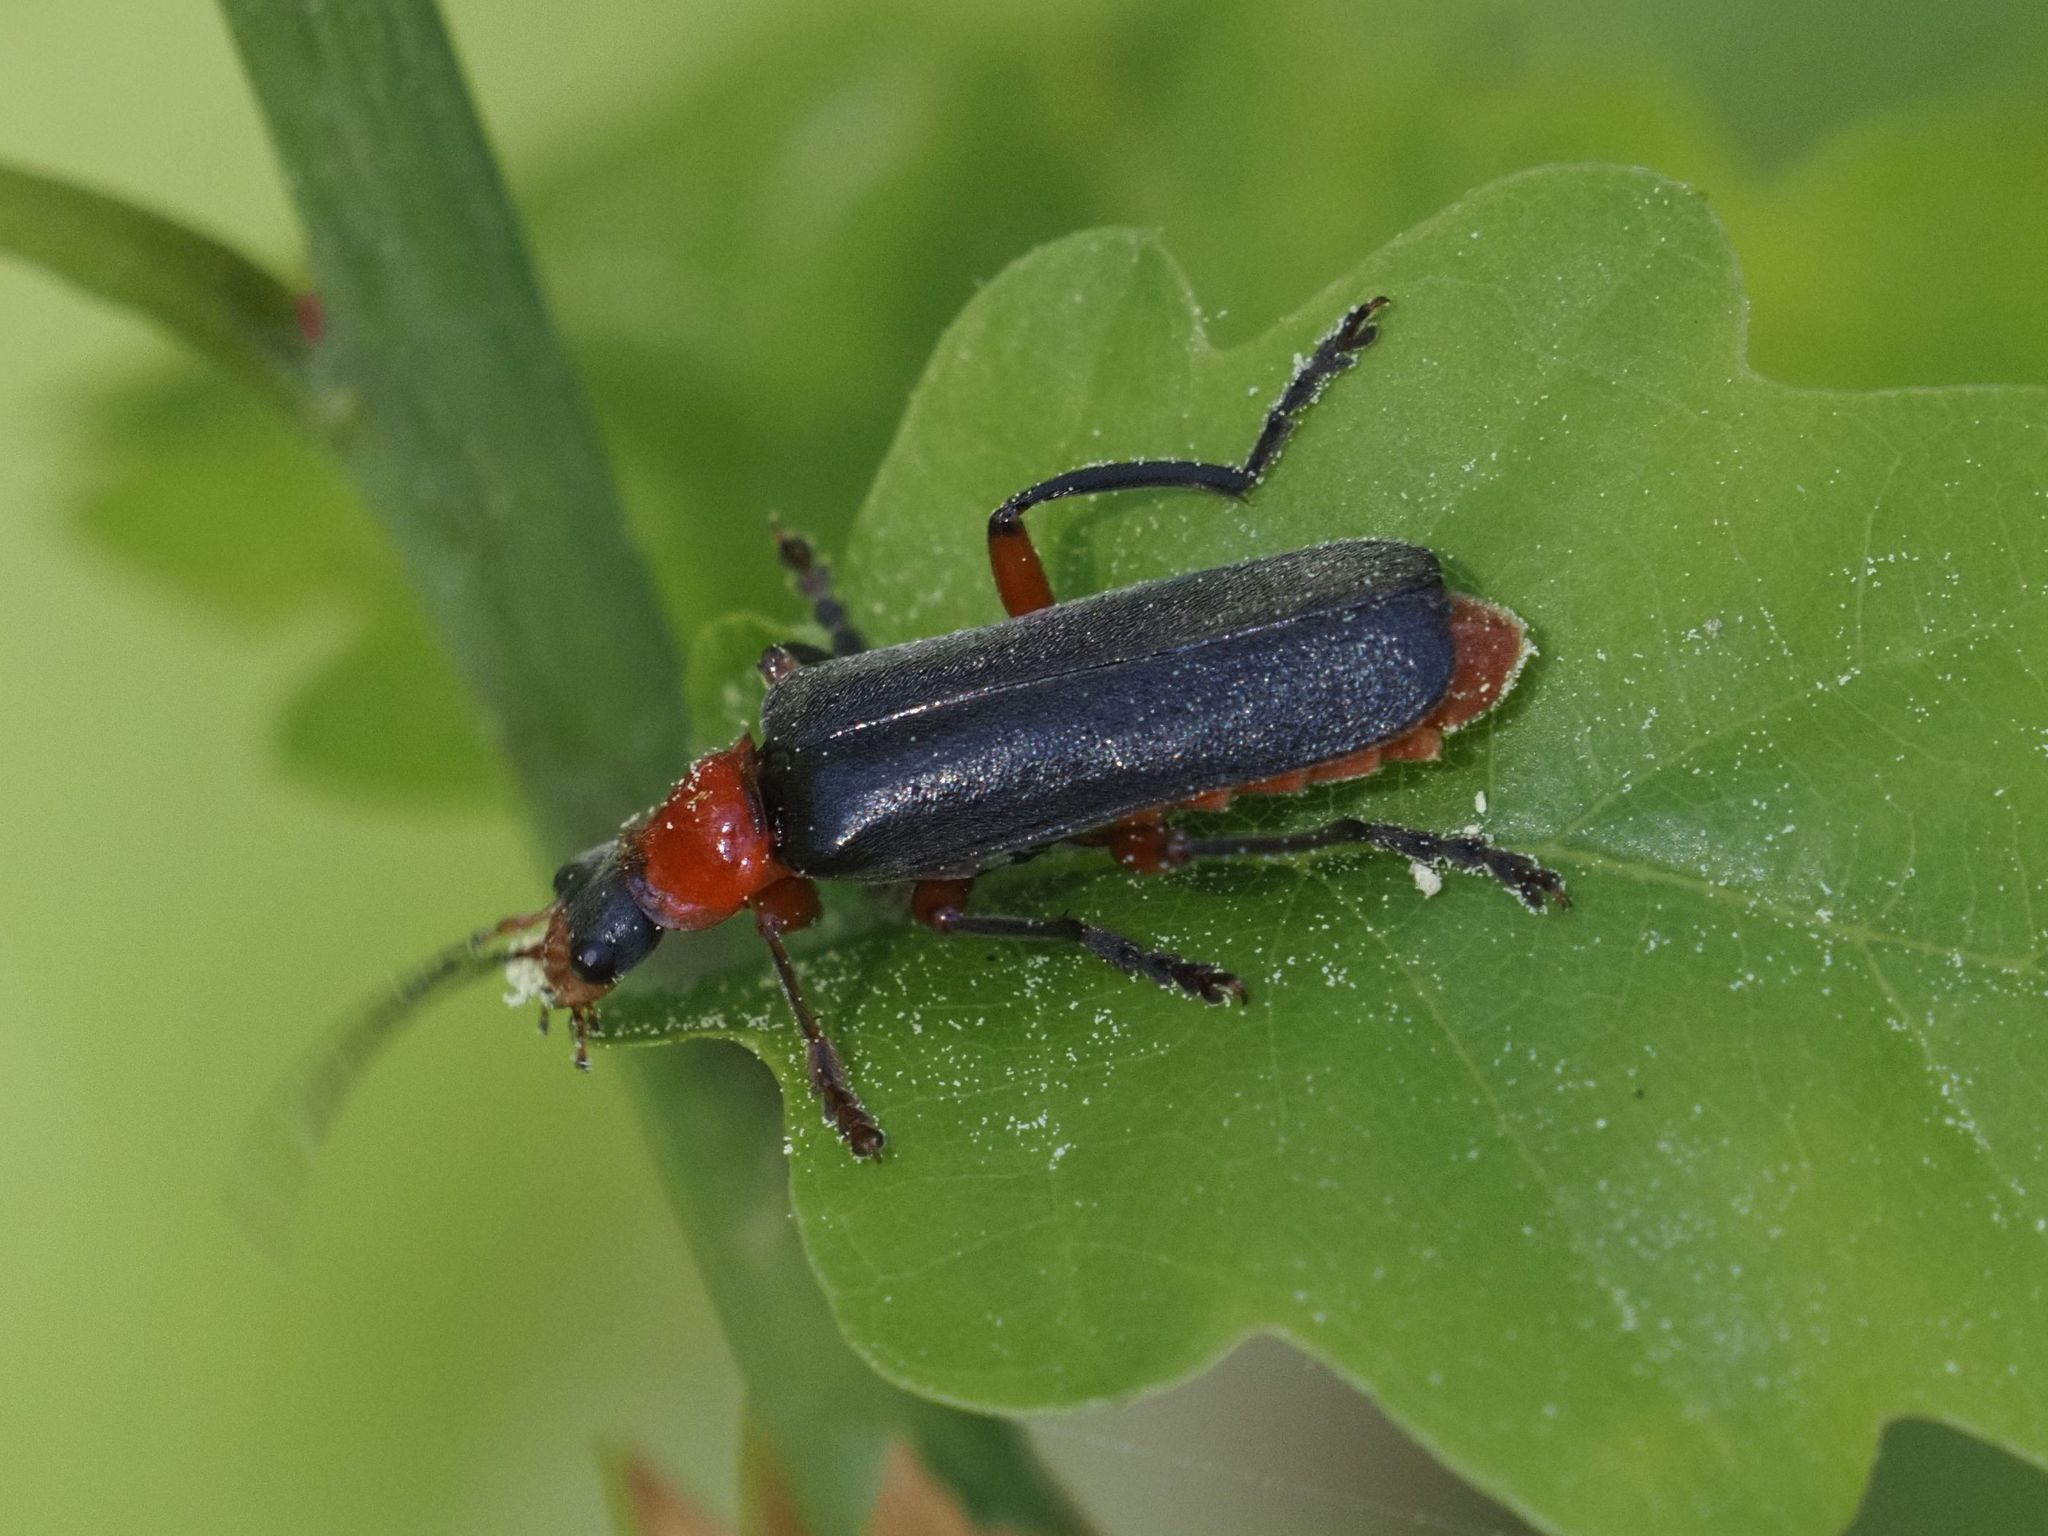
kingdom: Animalia
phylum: Arthropoda
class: Insecta
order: Coleoptera
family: Cantharidae
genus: Cantharis
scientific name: Cantharis pellucida
